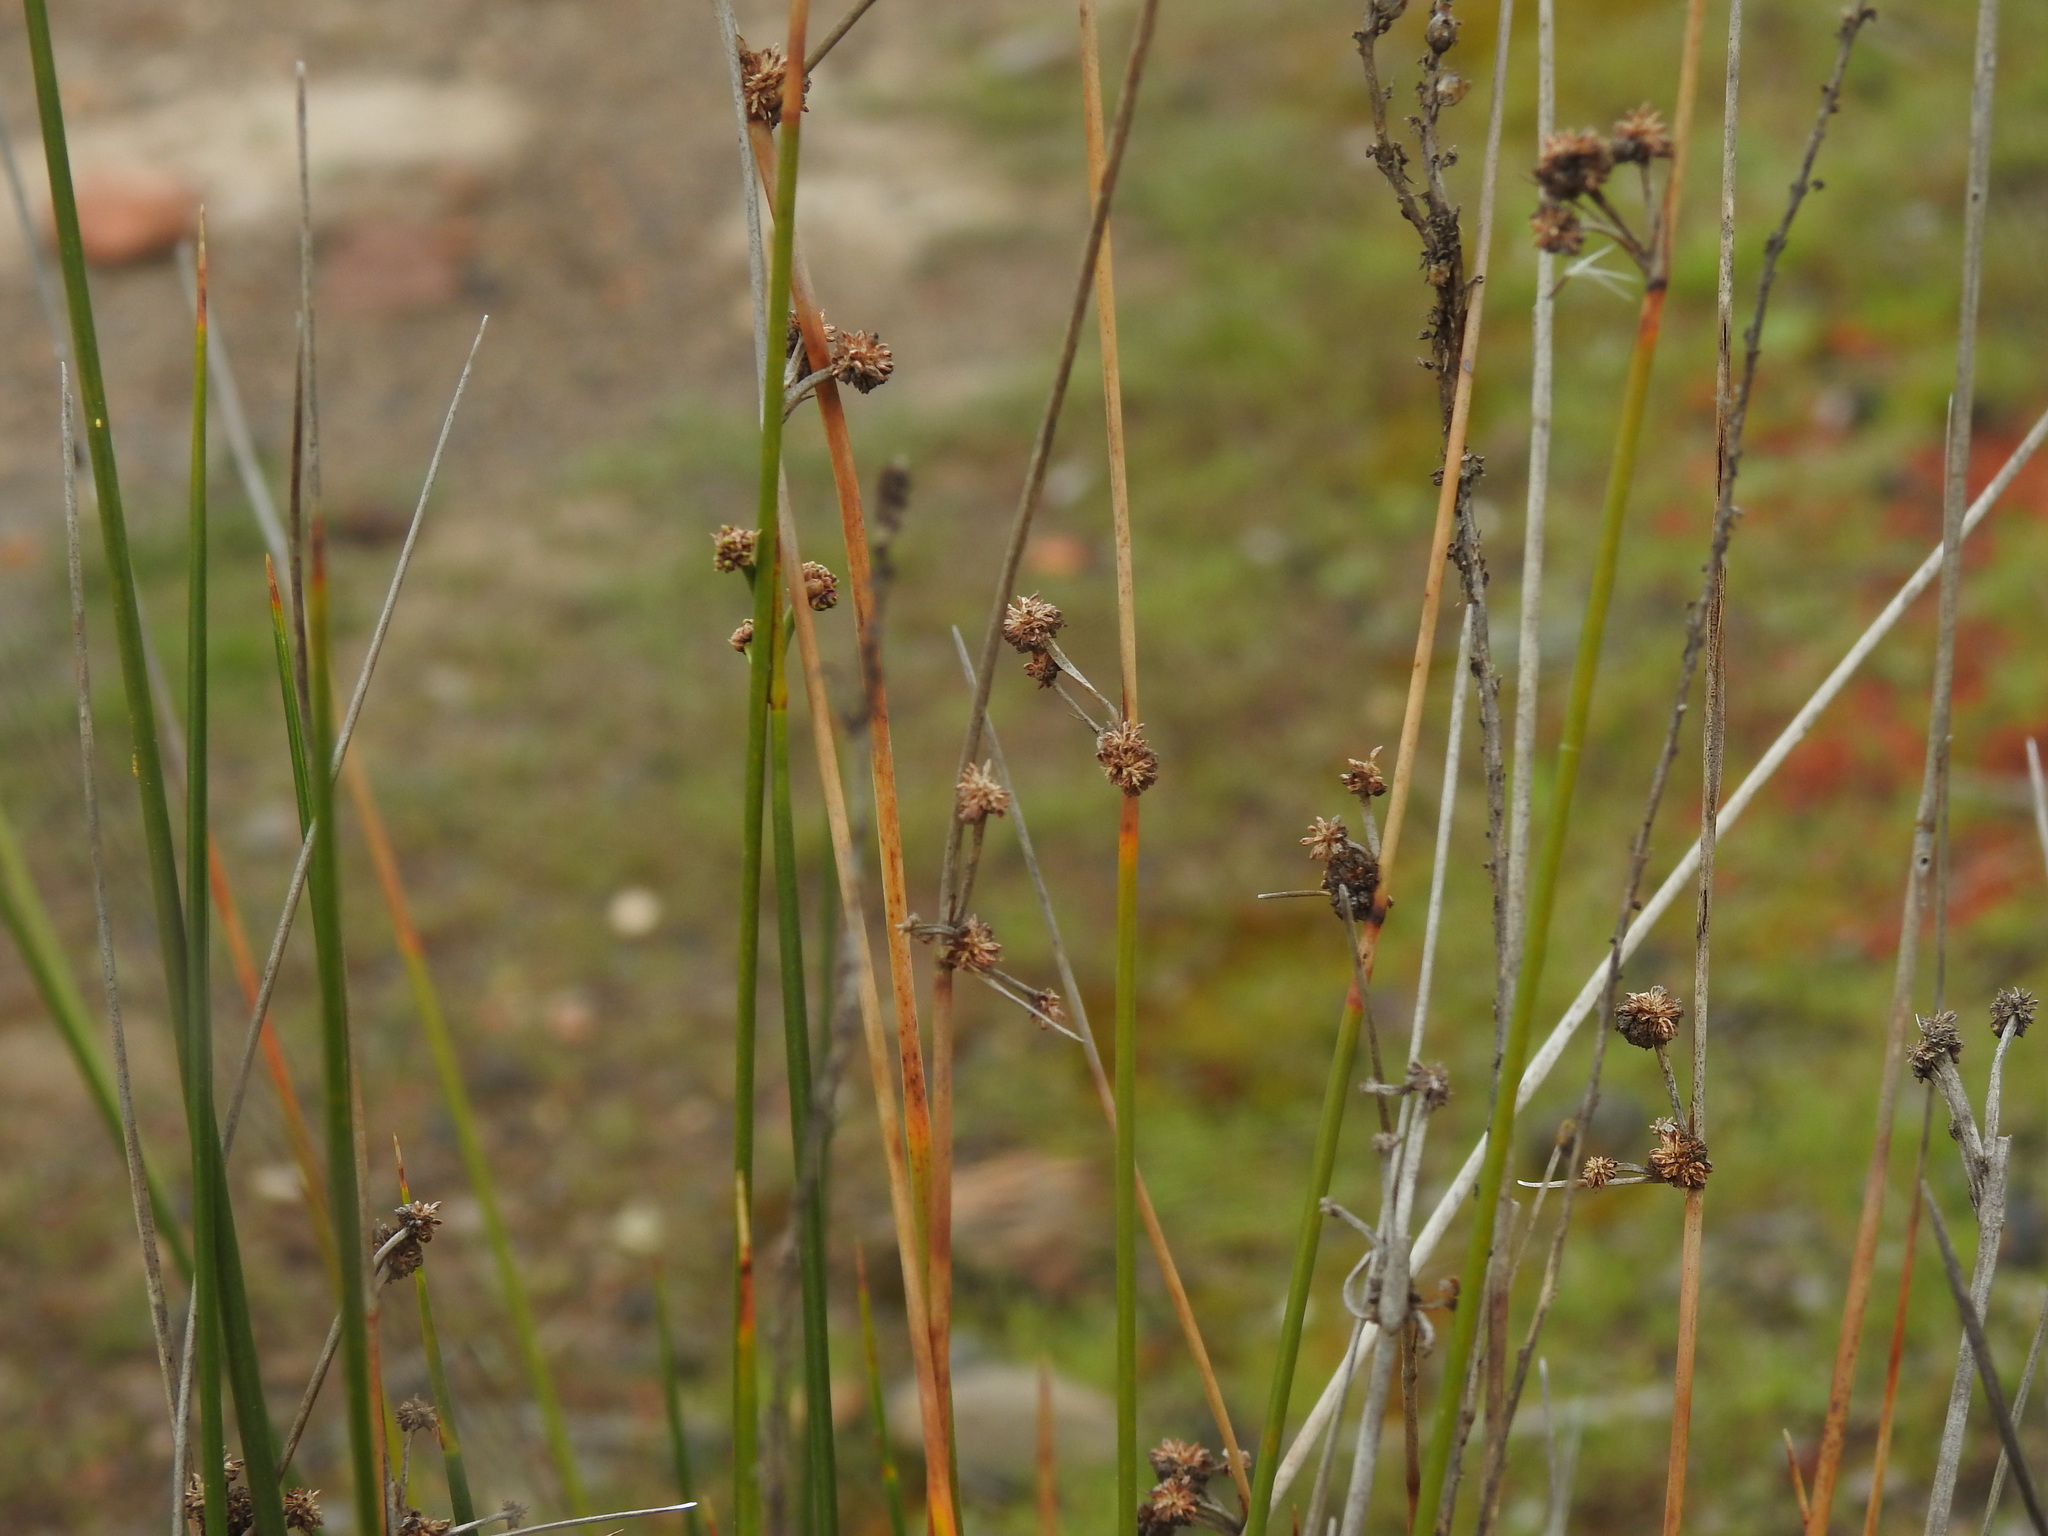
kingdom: Plantae
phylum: Tracheophyta
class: Liliopsida
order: Poales
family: Cyperaceae
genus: Scirpoides
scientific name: Scirpoides holoschoenus
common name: Round-headed club-rush
